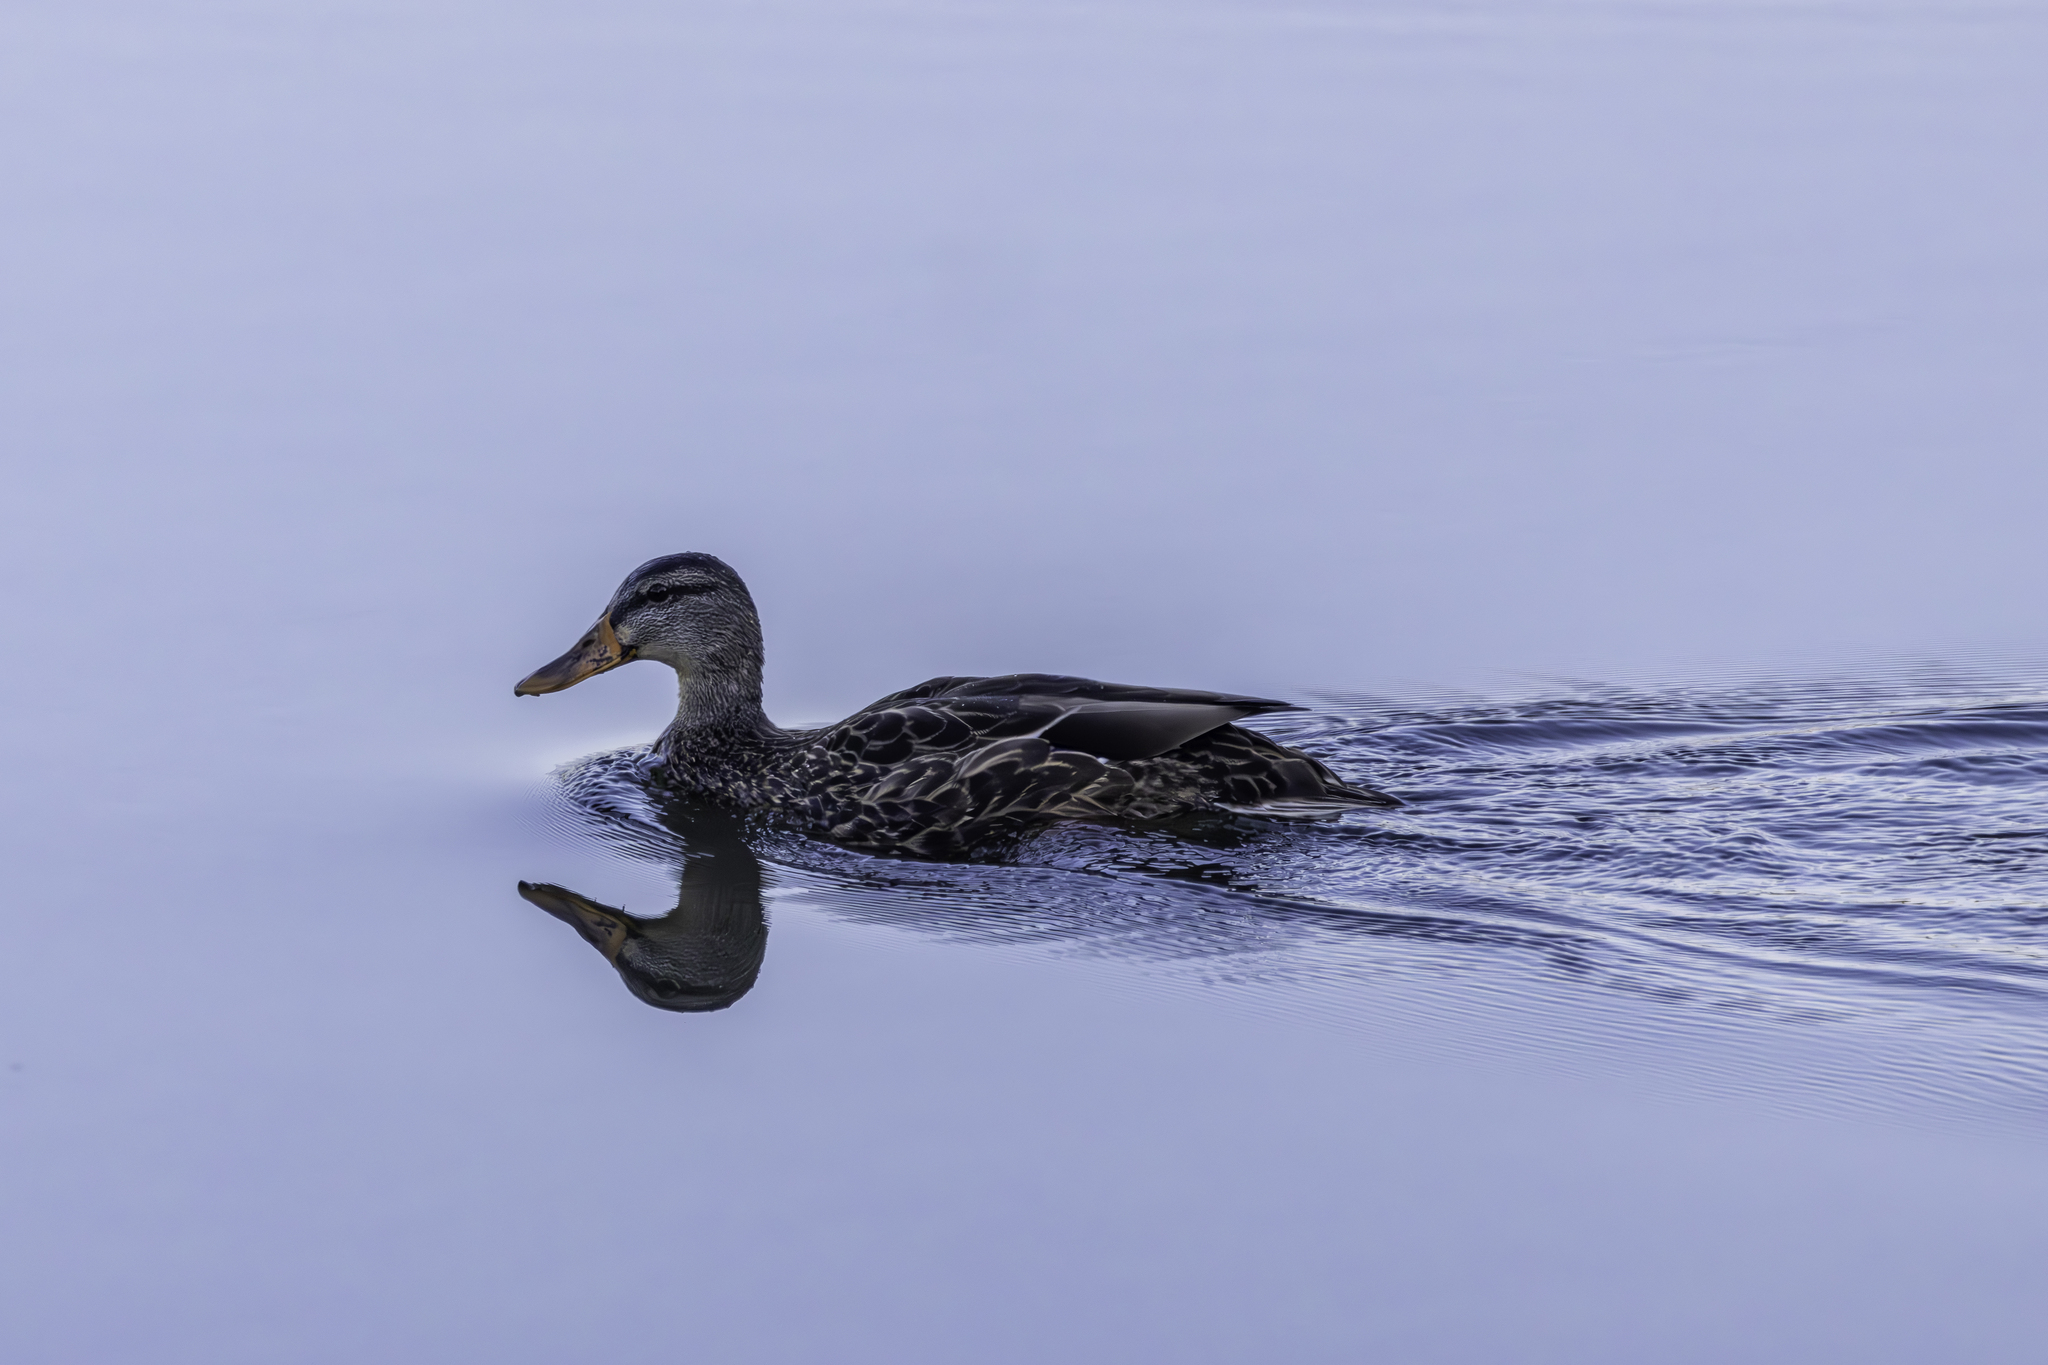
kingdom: Animalia
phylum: Chordata
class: Aves
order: Anseriformes
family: Anatidae
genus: Anas
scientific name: Anas platyrhynchos
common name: Mallard
